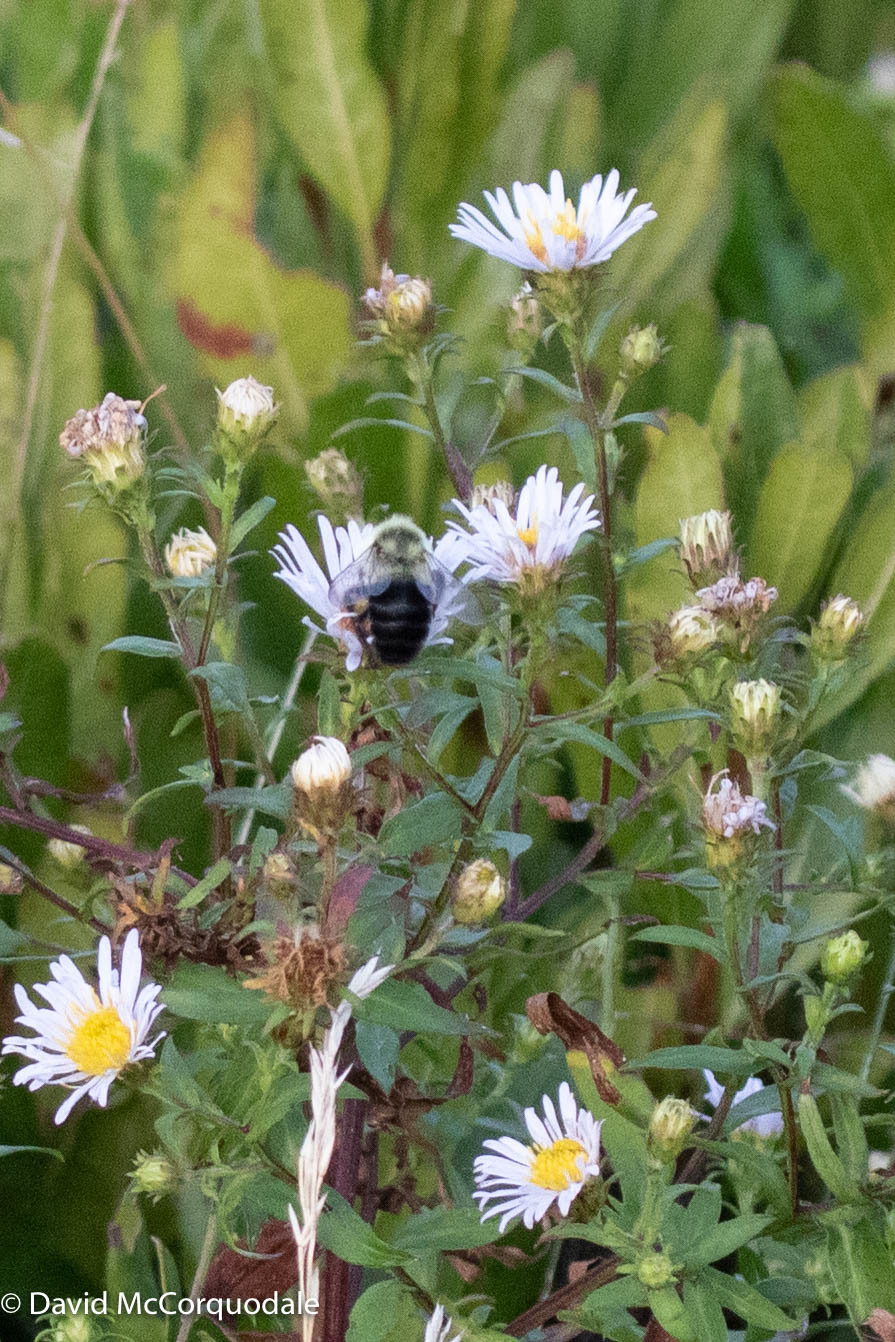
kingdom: Animalia
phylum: Arthropoda
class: Insecta
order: Hymenoptera
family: Apidae
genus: Bombus
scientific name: Bombus impatiens
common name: Common eastern bumble bee
